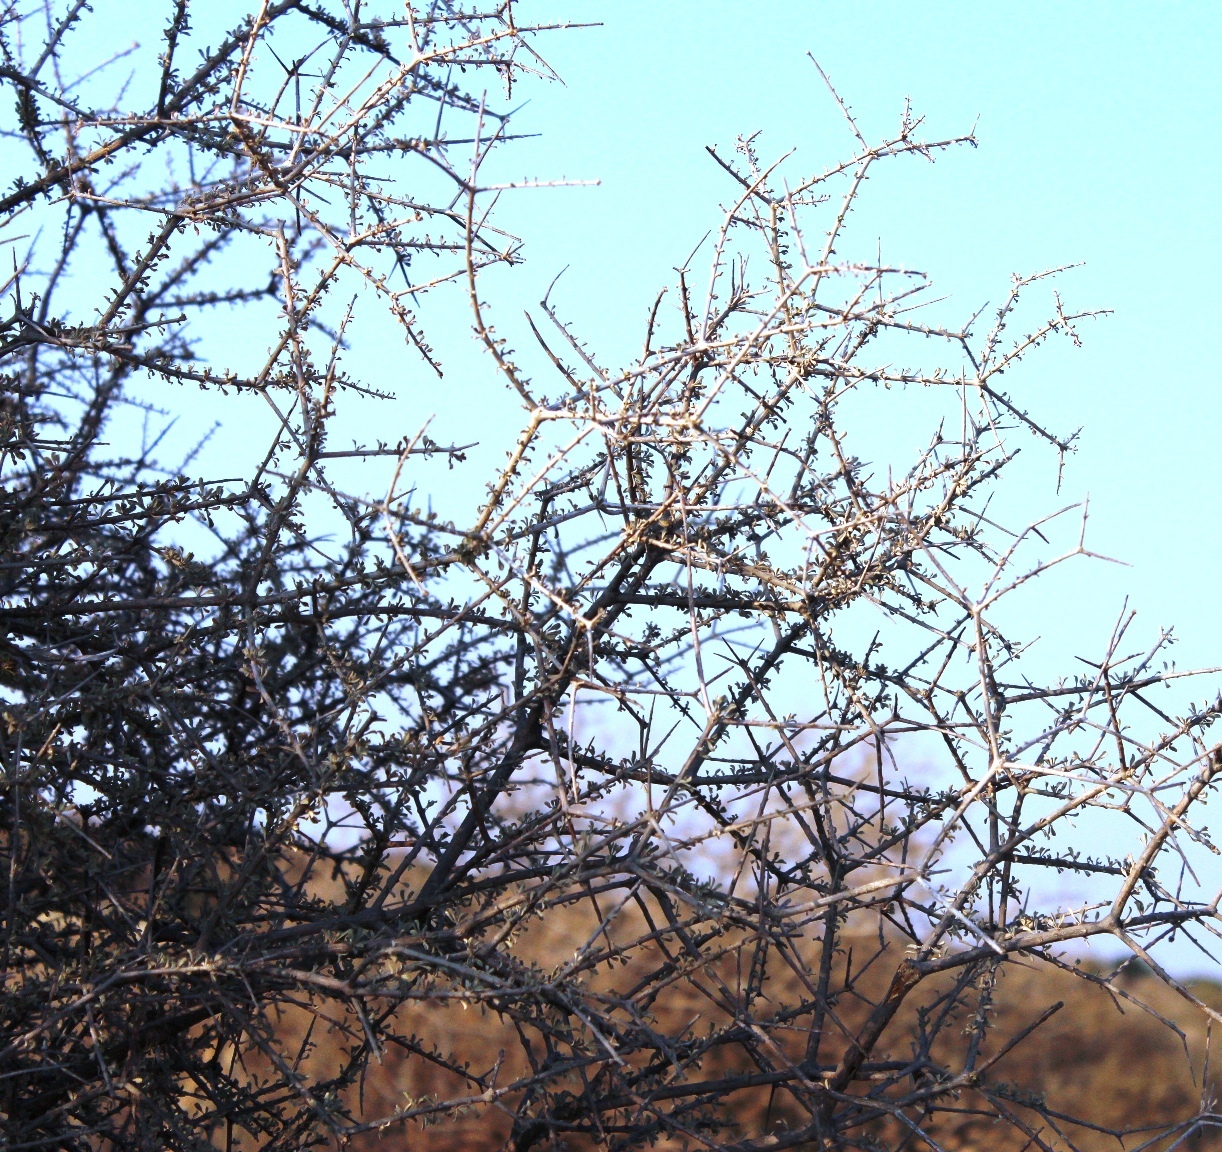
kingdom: Plantae
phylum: Tracheophyta
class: Magnoliopsida
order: Lamiales
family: Bignoniaceae
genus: Rhigozum
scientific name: Rhigozum trichotomum
